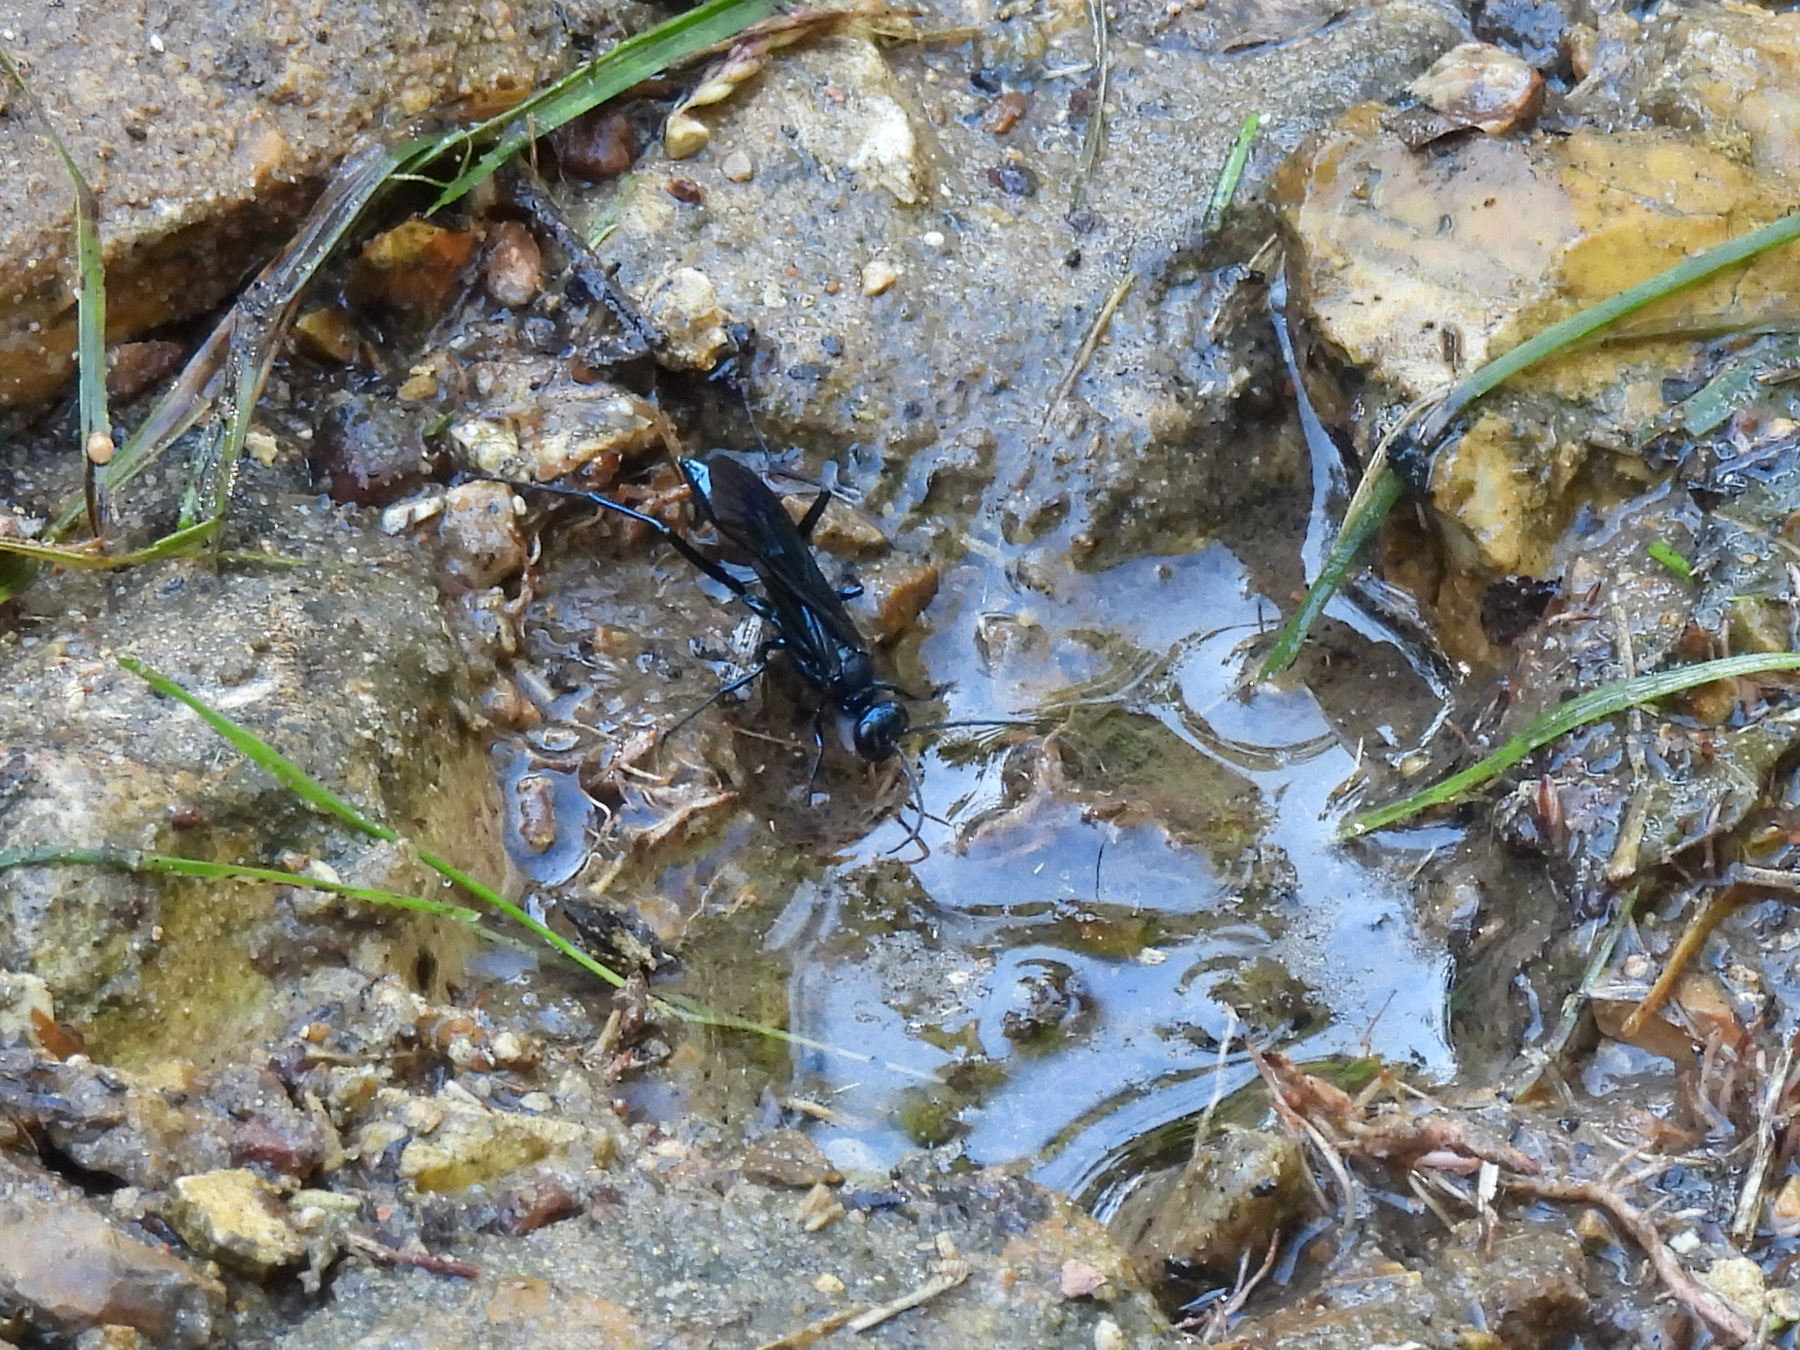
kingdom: Animalia
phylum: Arthropoda
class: Insecta
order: Hymenoptera
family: Sphecidae
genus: Chalybion
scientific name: Chalybion californicum
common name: Mud dauber
